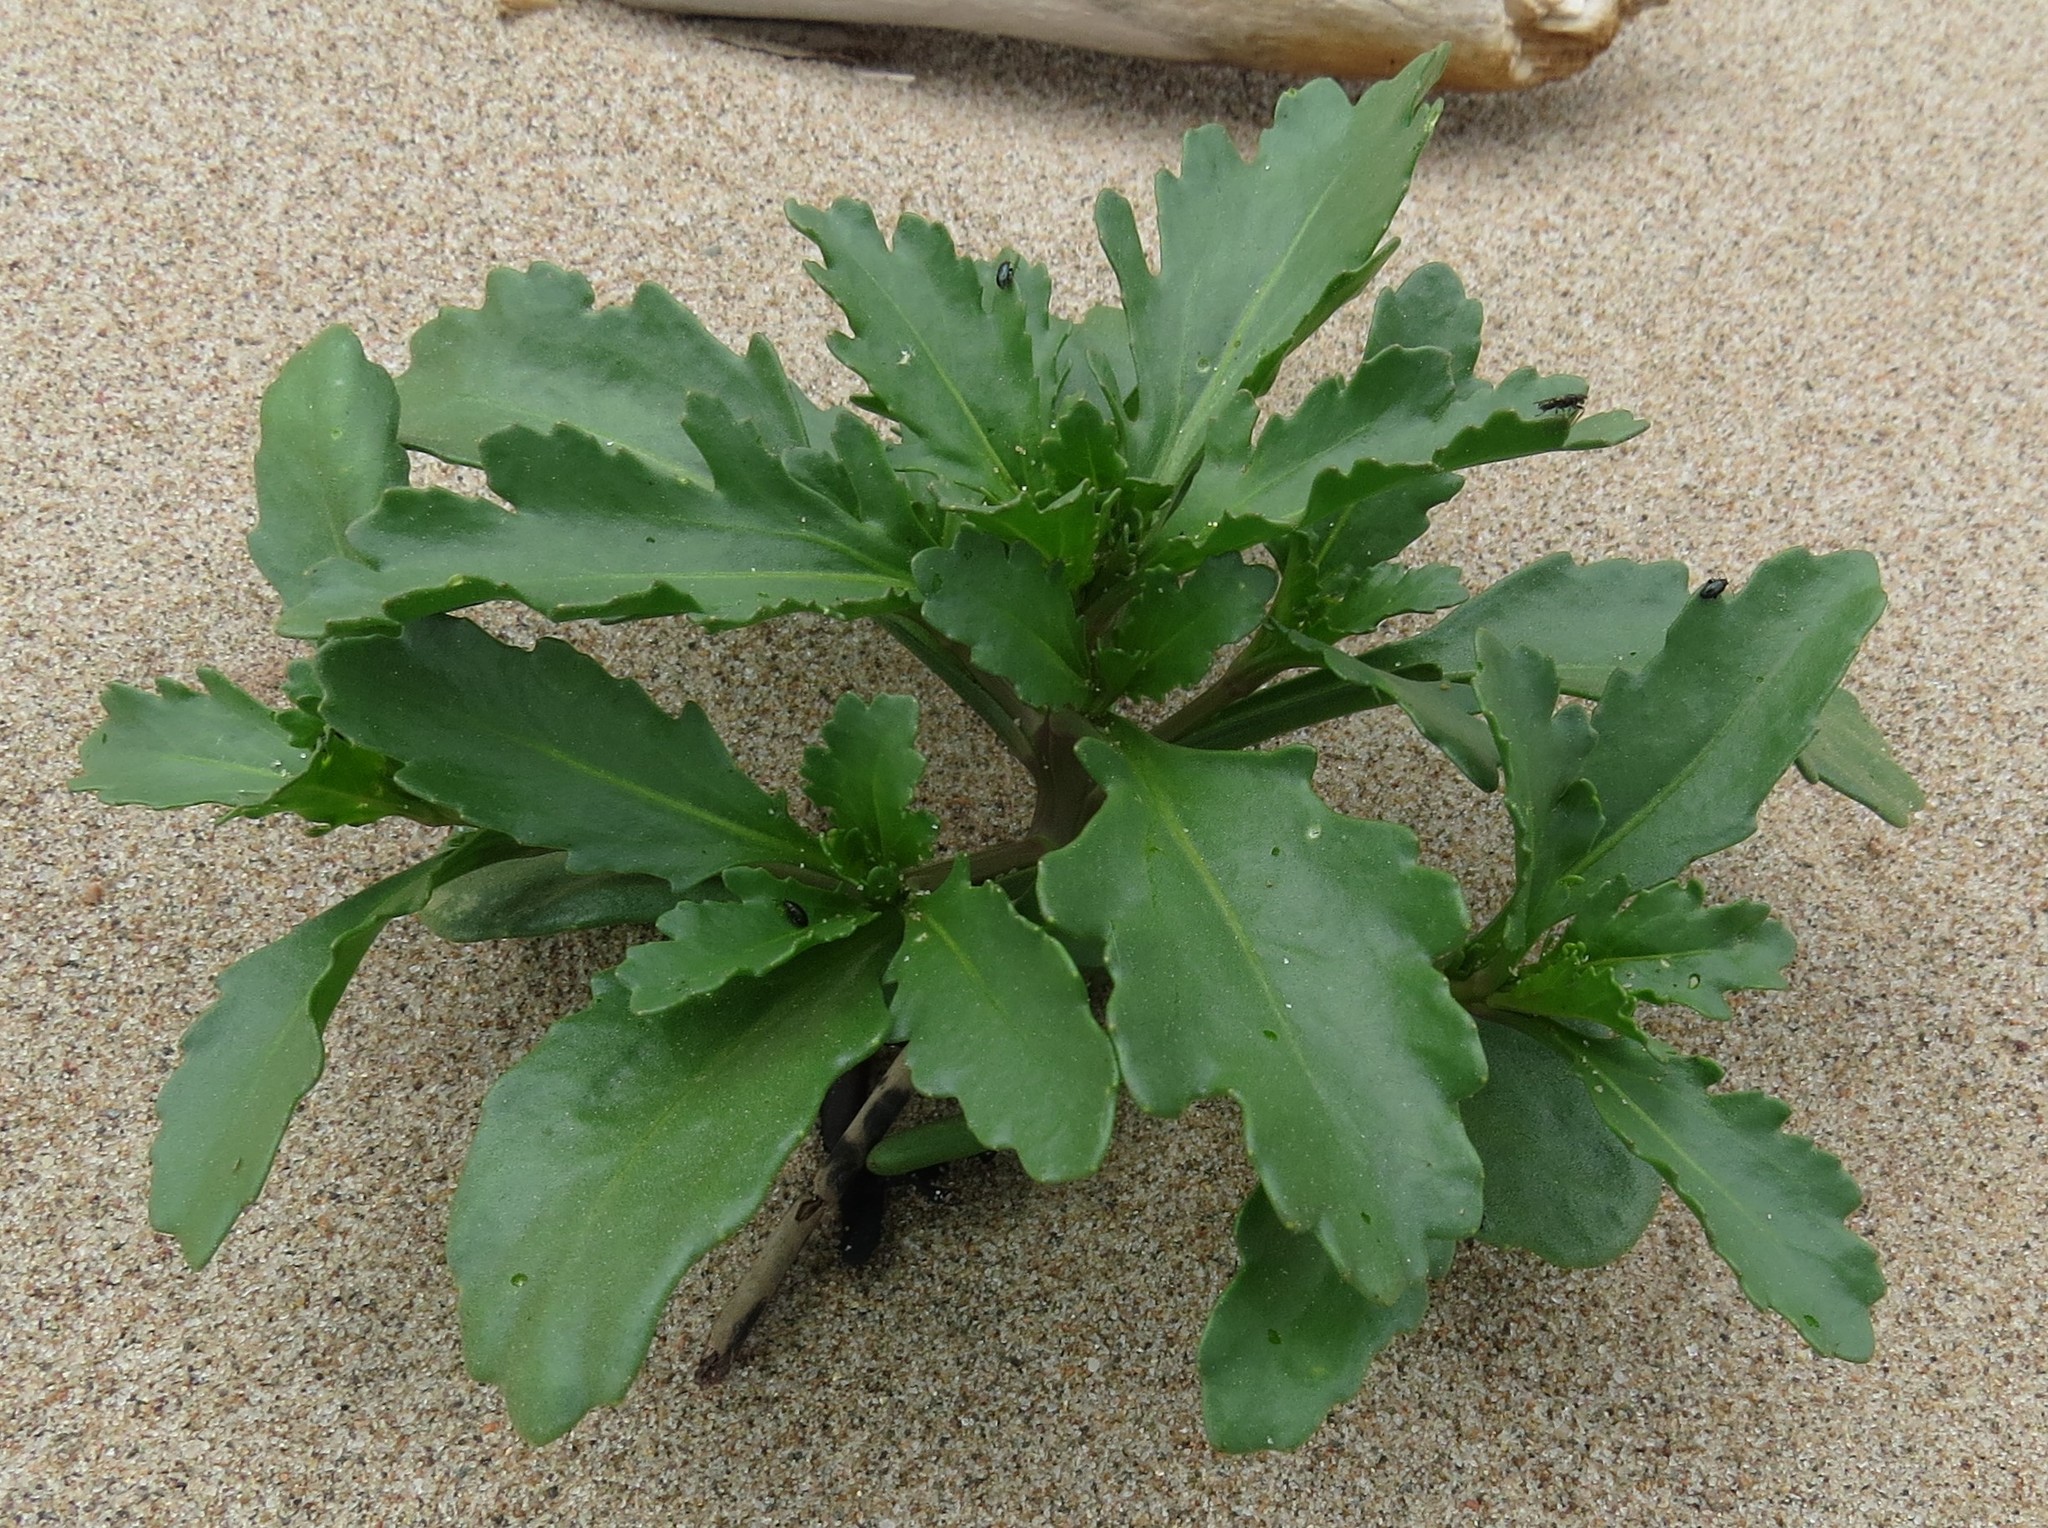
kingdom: Plantae
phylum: Tracheophyta
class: Magnoliopsida
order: Brassicales
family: Brassicaceae
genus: Cakile
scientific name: Cakile edentula
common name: American sea rocket
